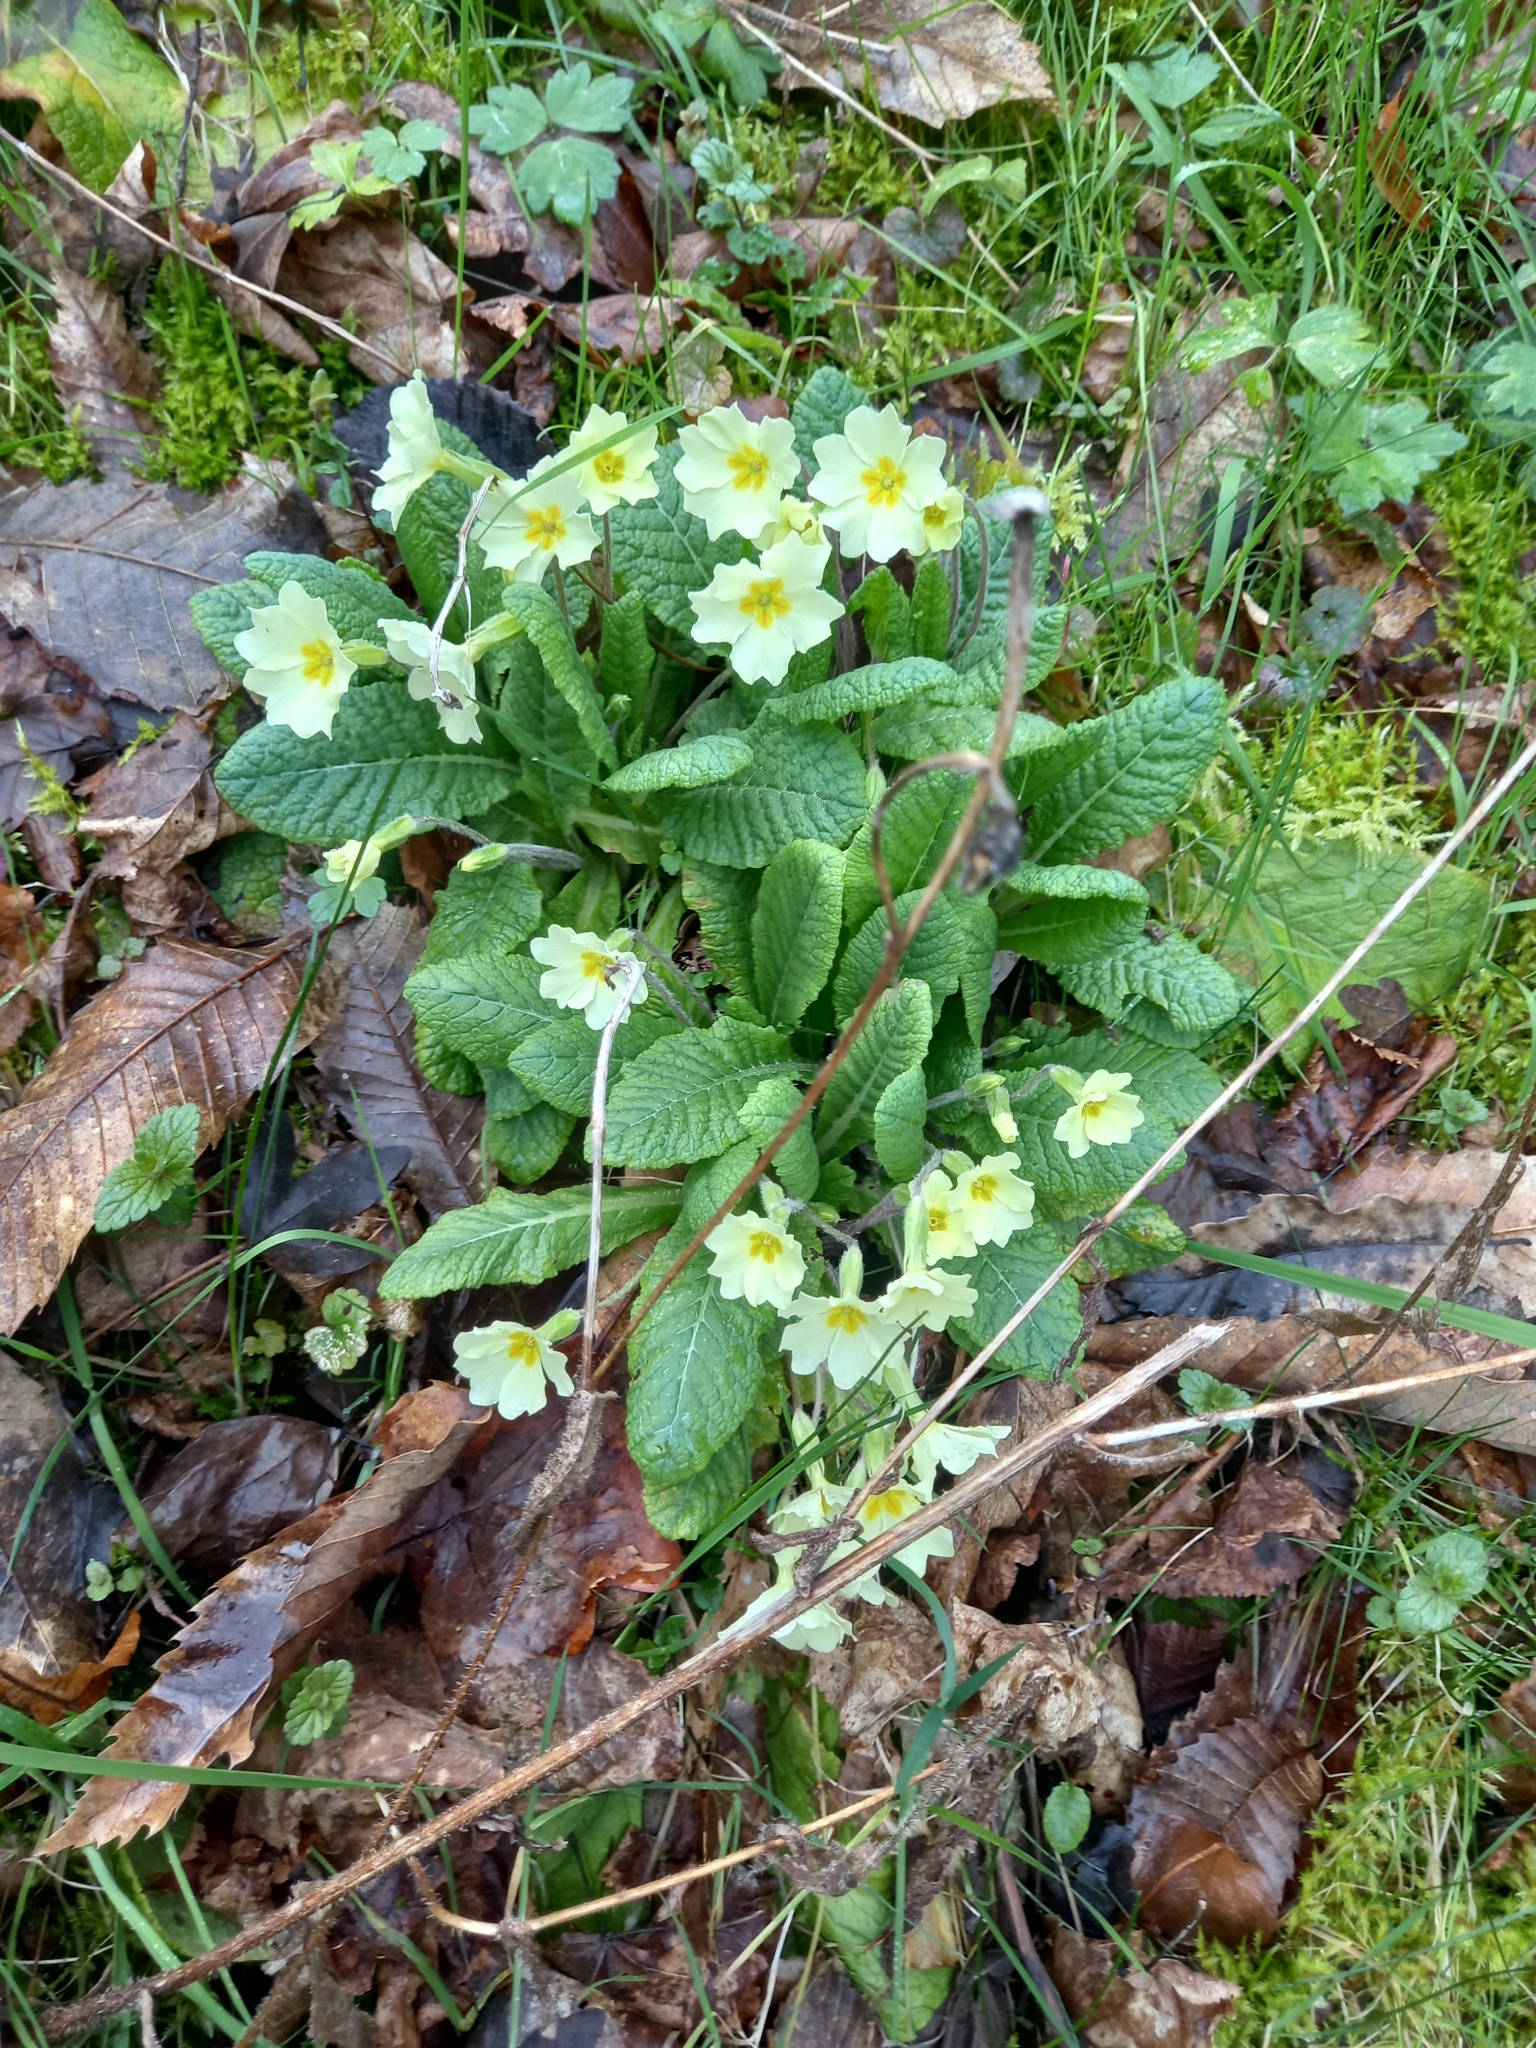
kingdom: Plantae
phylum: Tracheophyta
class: Magnoliopsida
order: Ericales
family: Primulaceae
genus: Primula
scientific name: Primula vulgaris
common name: Primrose
